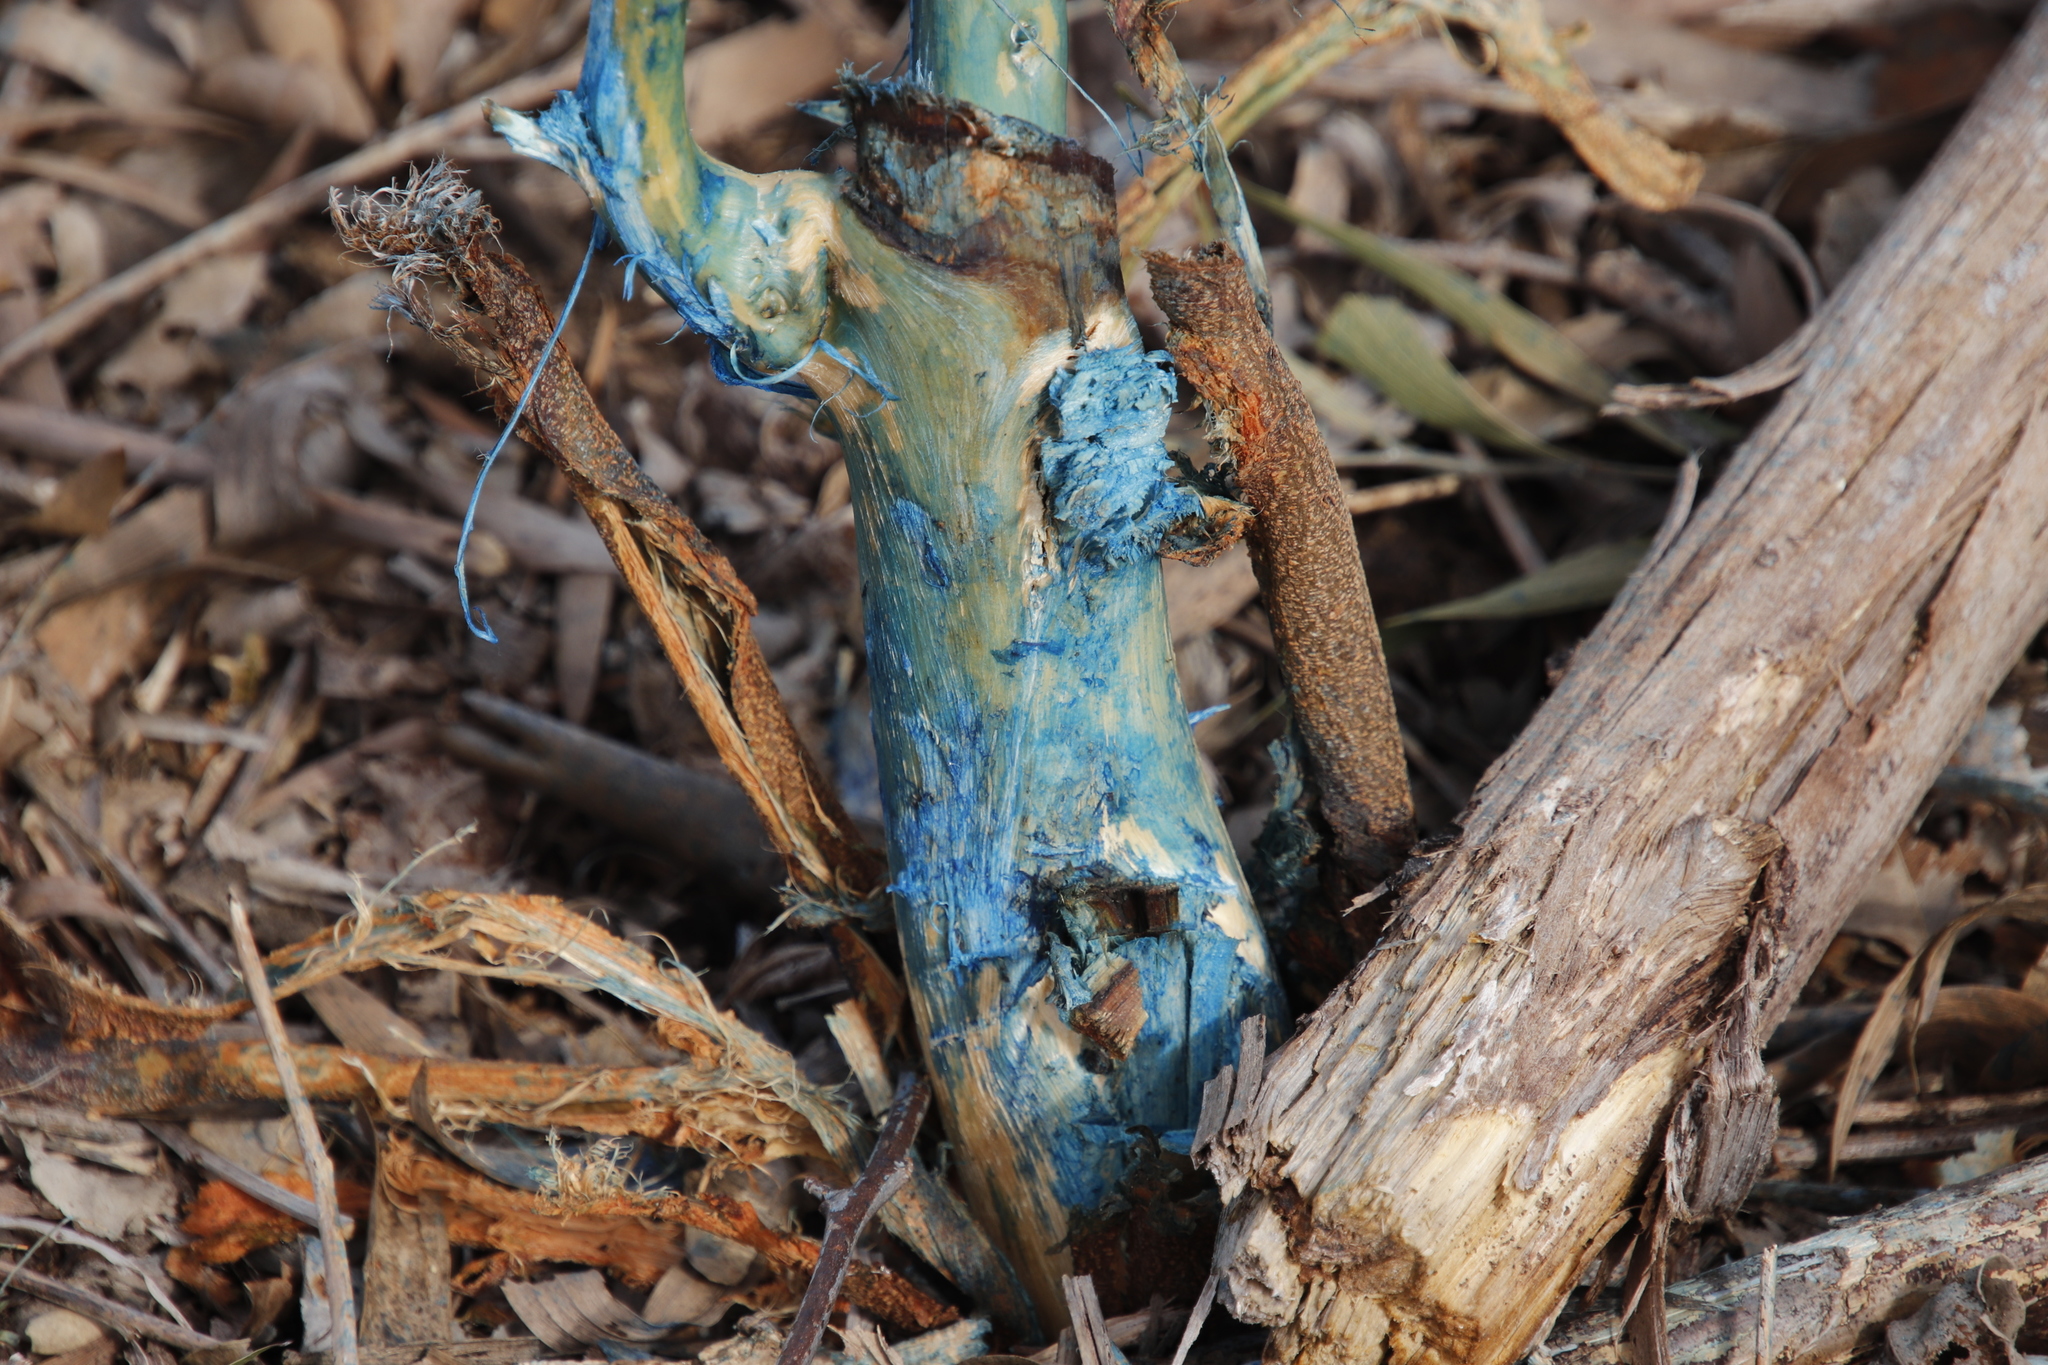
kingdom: Plantae
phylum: Tracheophyta
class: Magnoliopsida
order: Fabales
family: Fabaceae
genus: Acacia
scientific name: Acacia melanoxylon
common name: Blackwood
